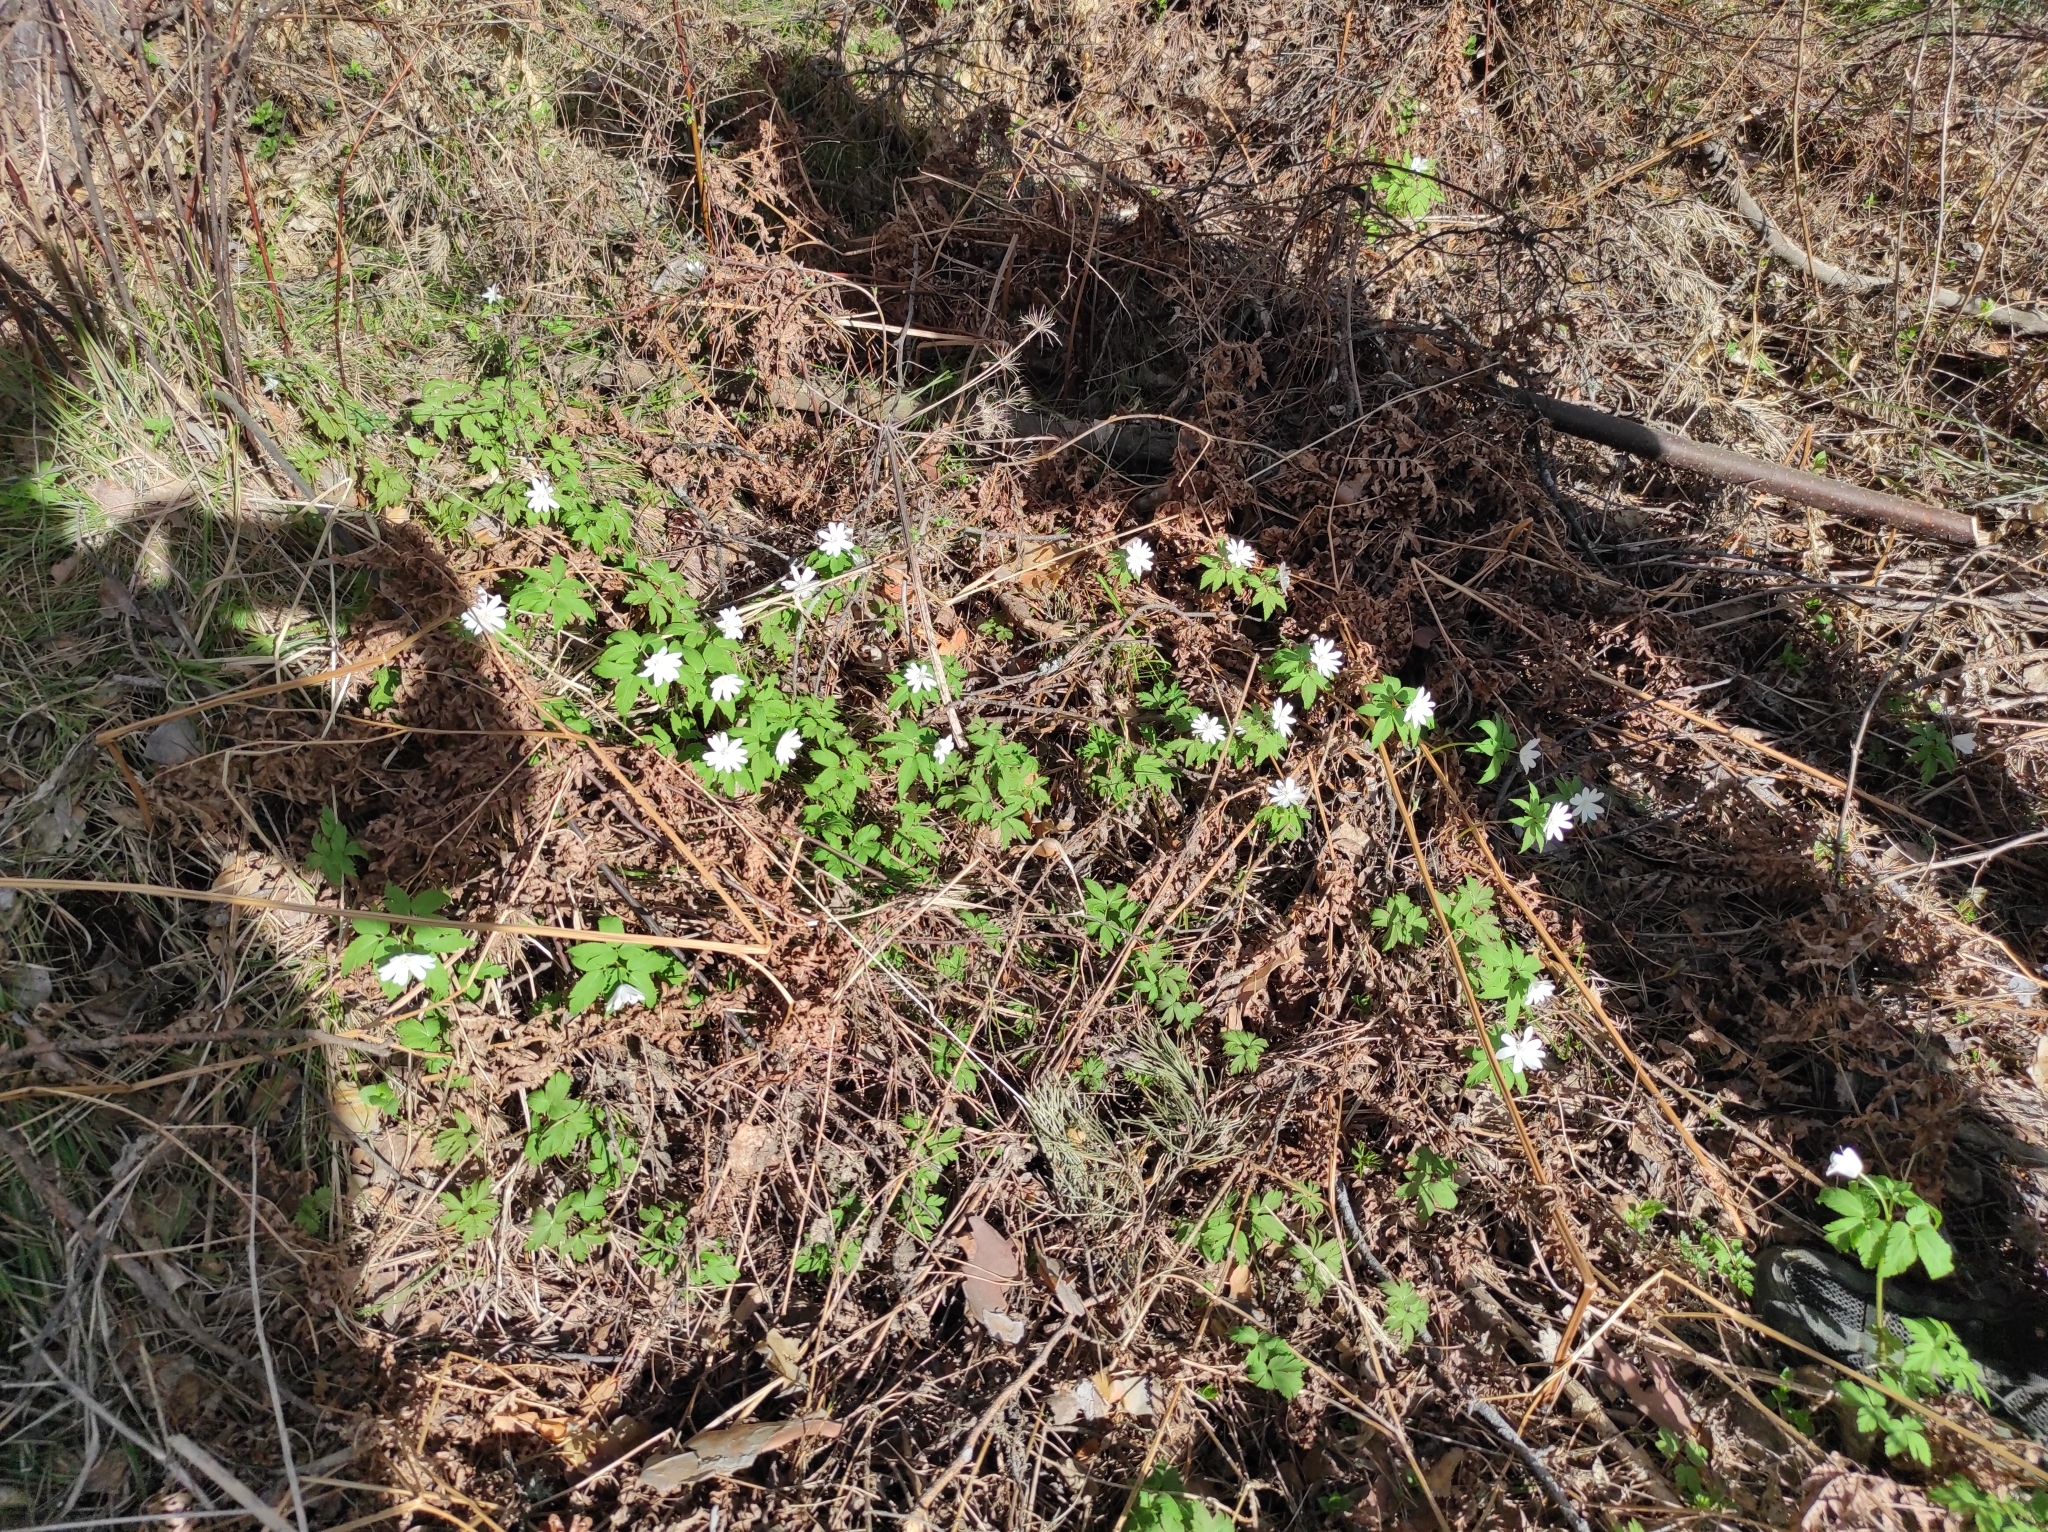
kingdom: Plantae
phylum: Tracheophyta
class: Magnoliopsida
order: Ranunculales
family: Ranunculaceae
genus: Anemone
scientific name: Anemone altaica
